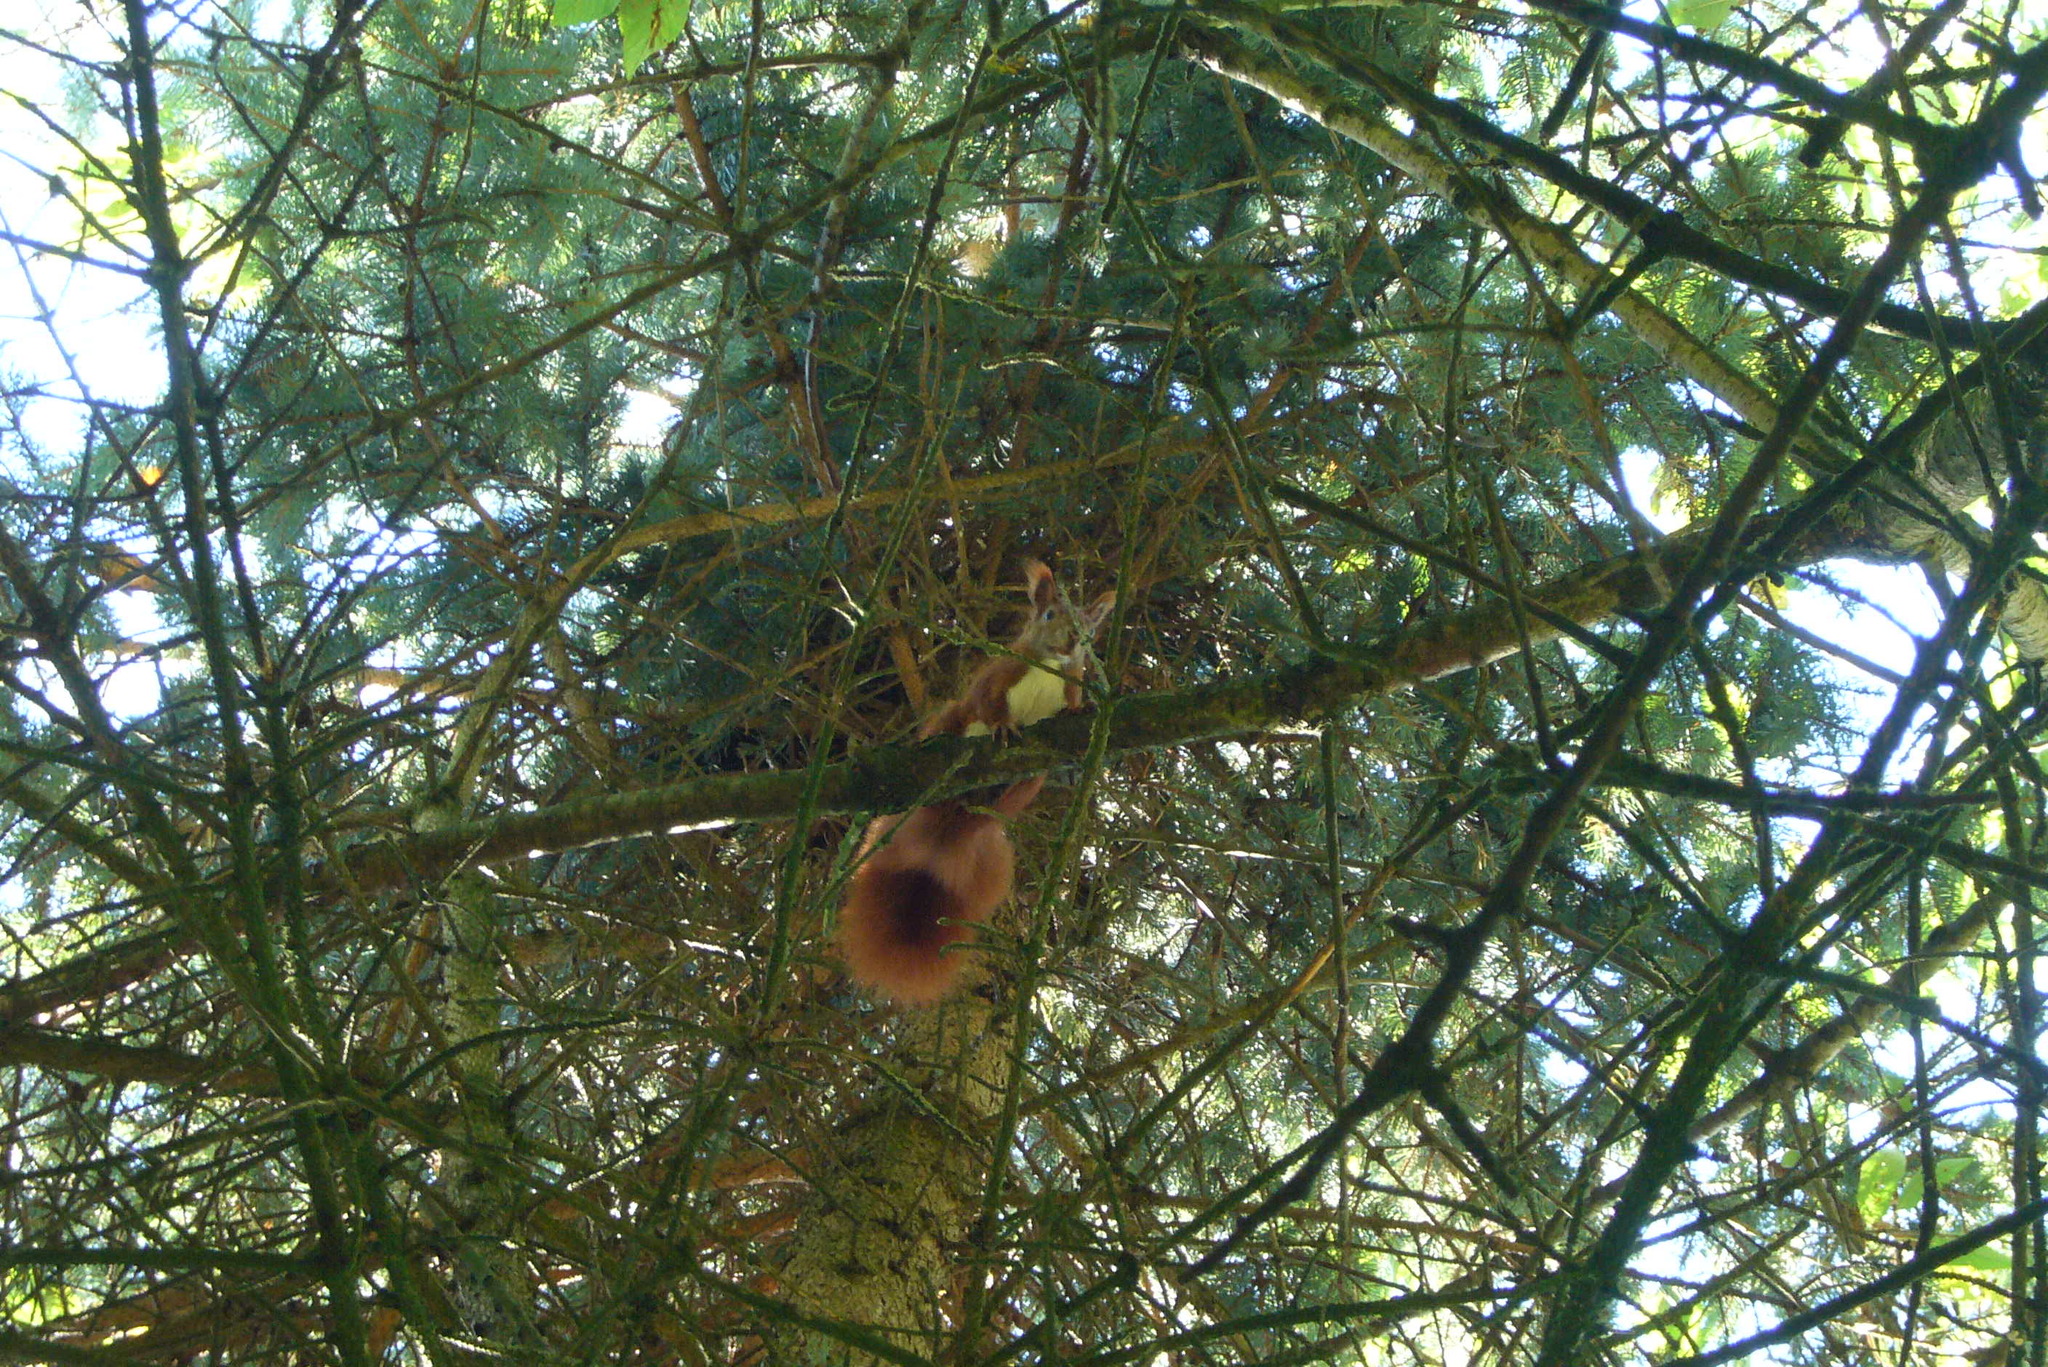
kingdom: Animalia
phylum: Chordata
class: Mammalia
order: Rodentia
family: Sciuridae
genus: Sciurus
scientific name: Sciurus vulgaris
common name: Eurasian red squirrel
